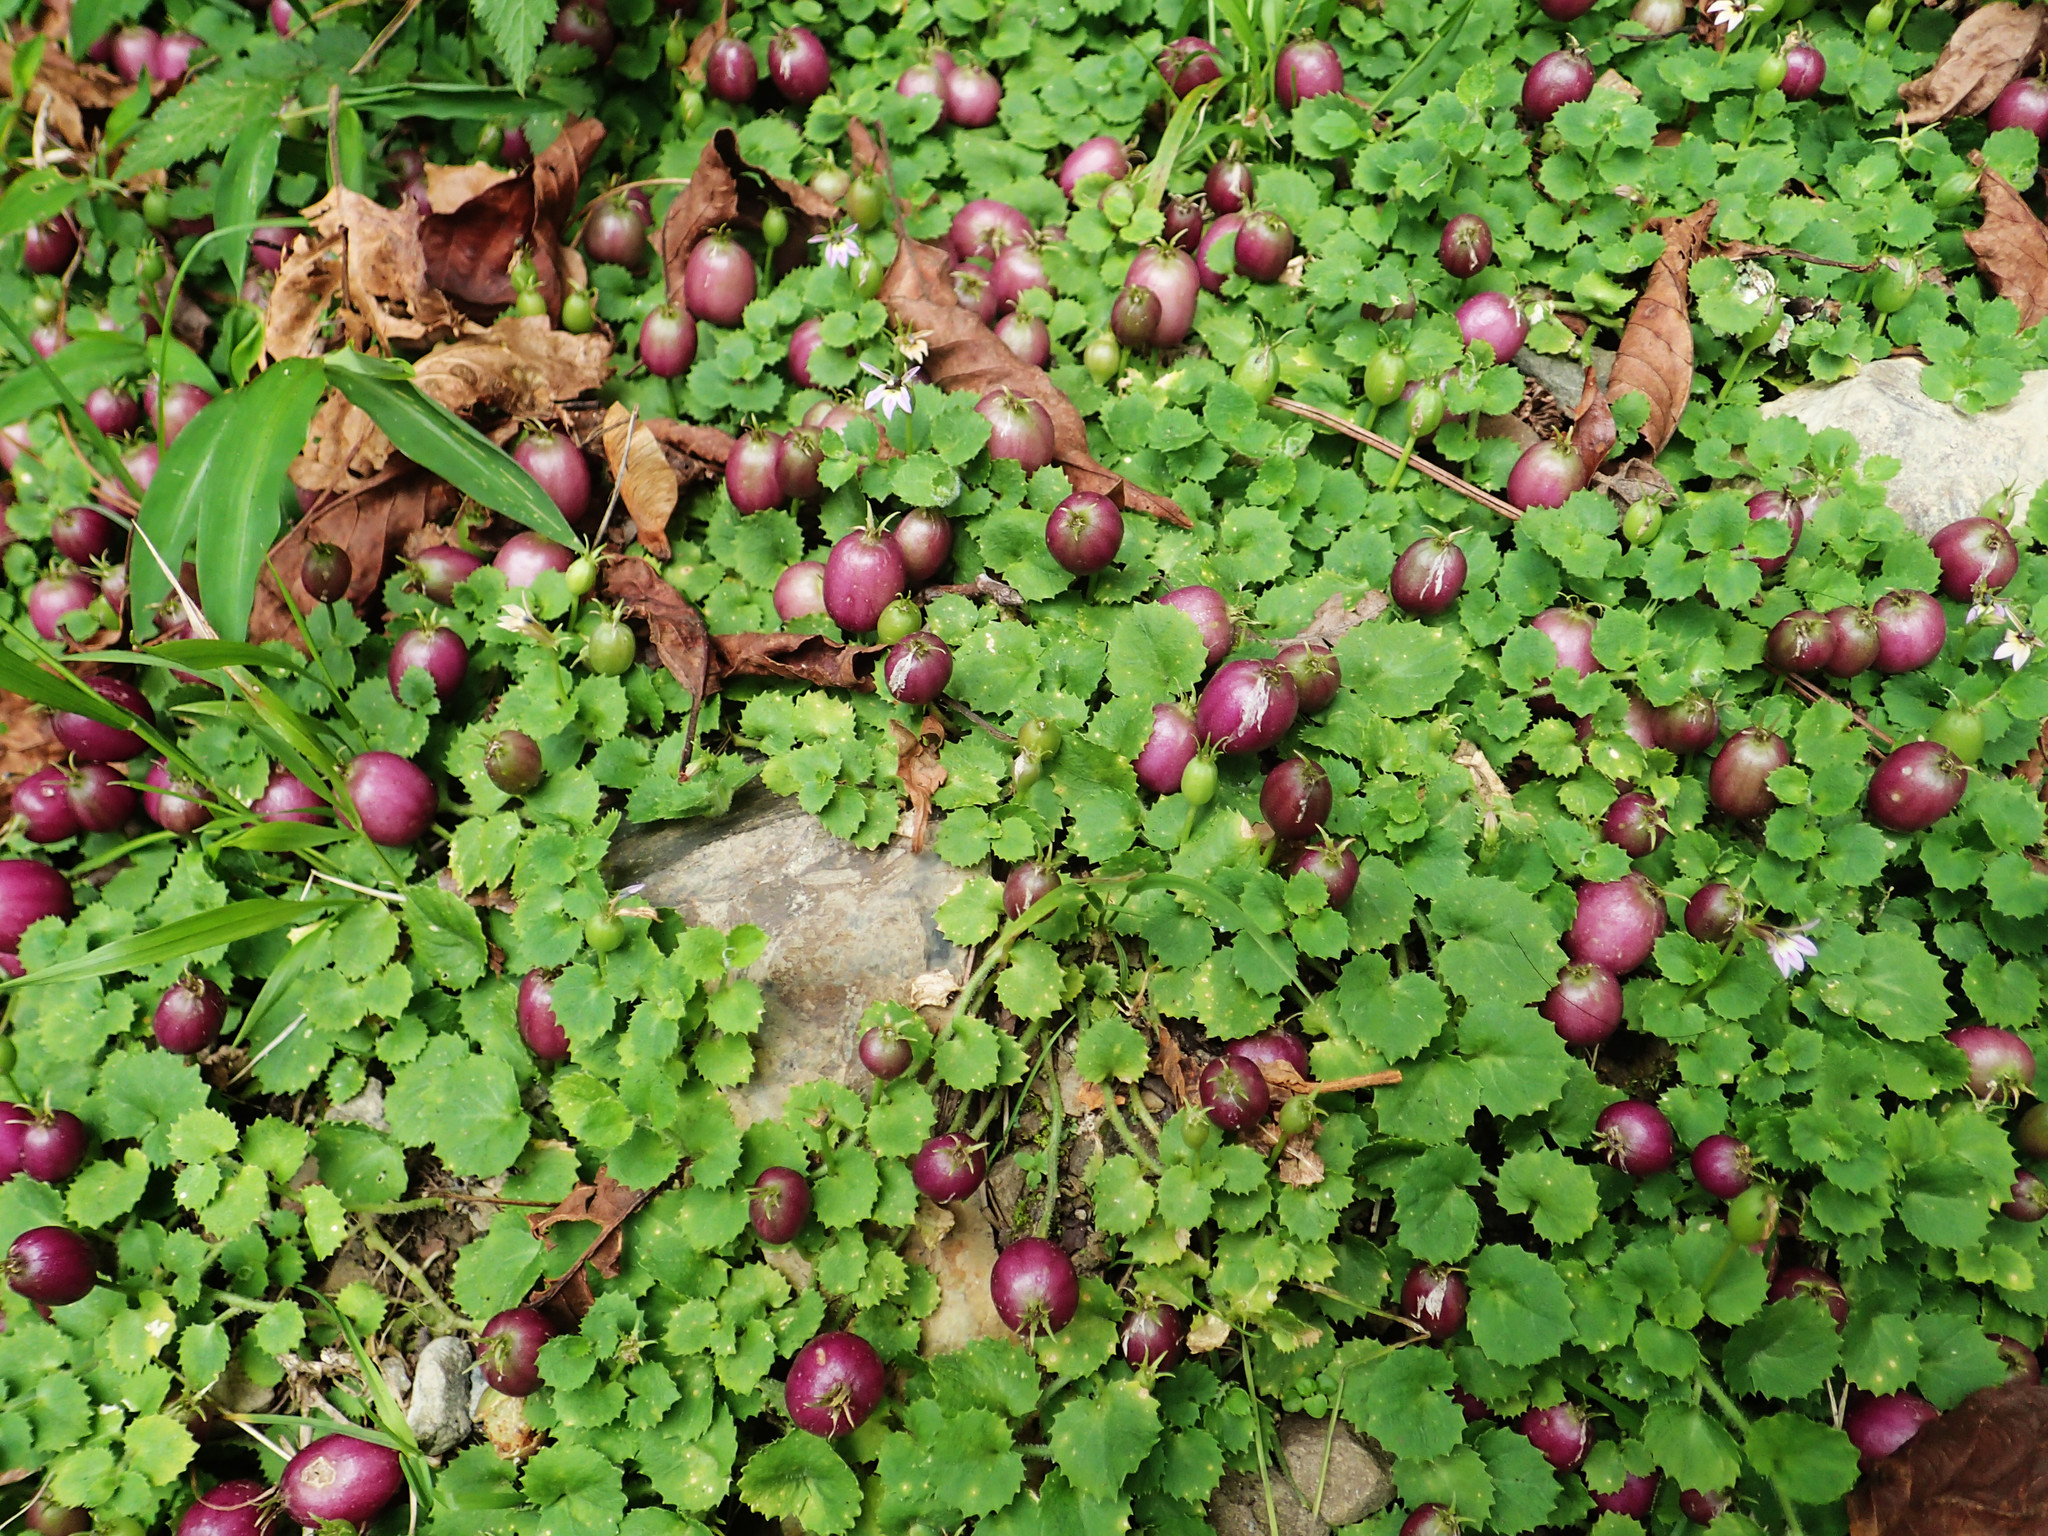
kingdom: Plantae
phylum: Tracheophyta
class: Magnoliopsida
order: Asterales
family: Campanulaceae
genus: Lobelia
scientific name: Lobelia nummularia
